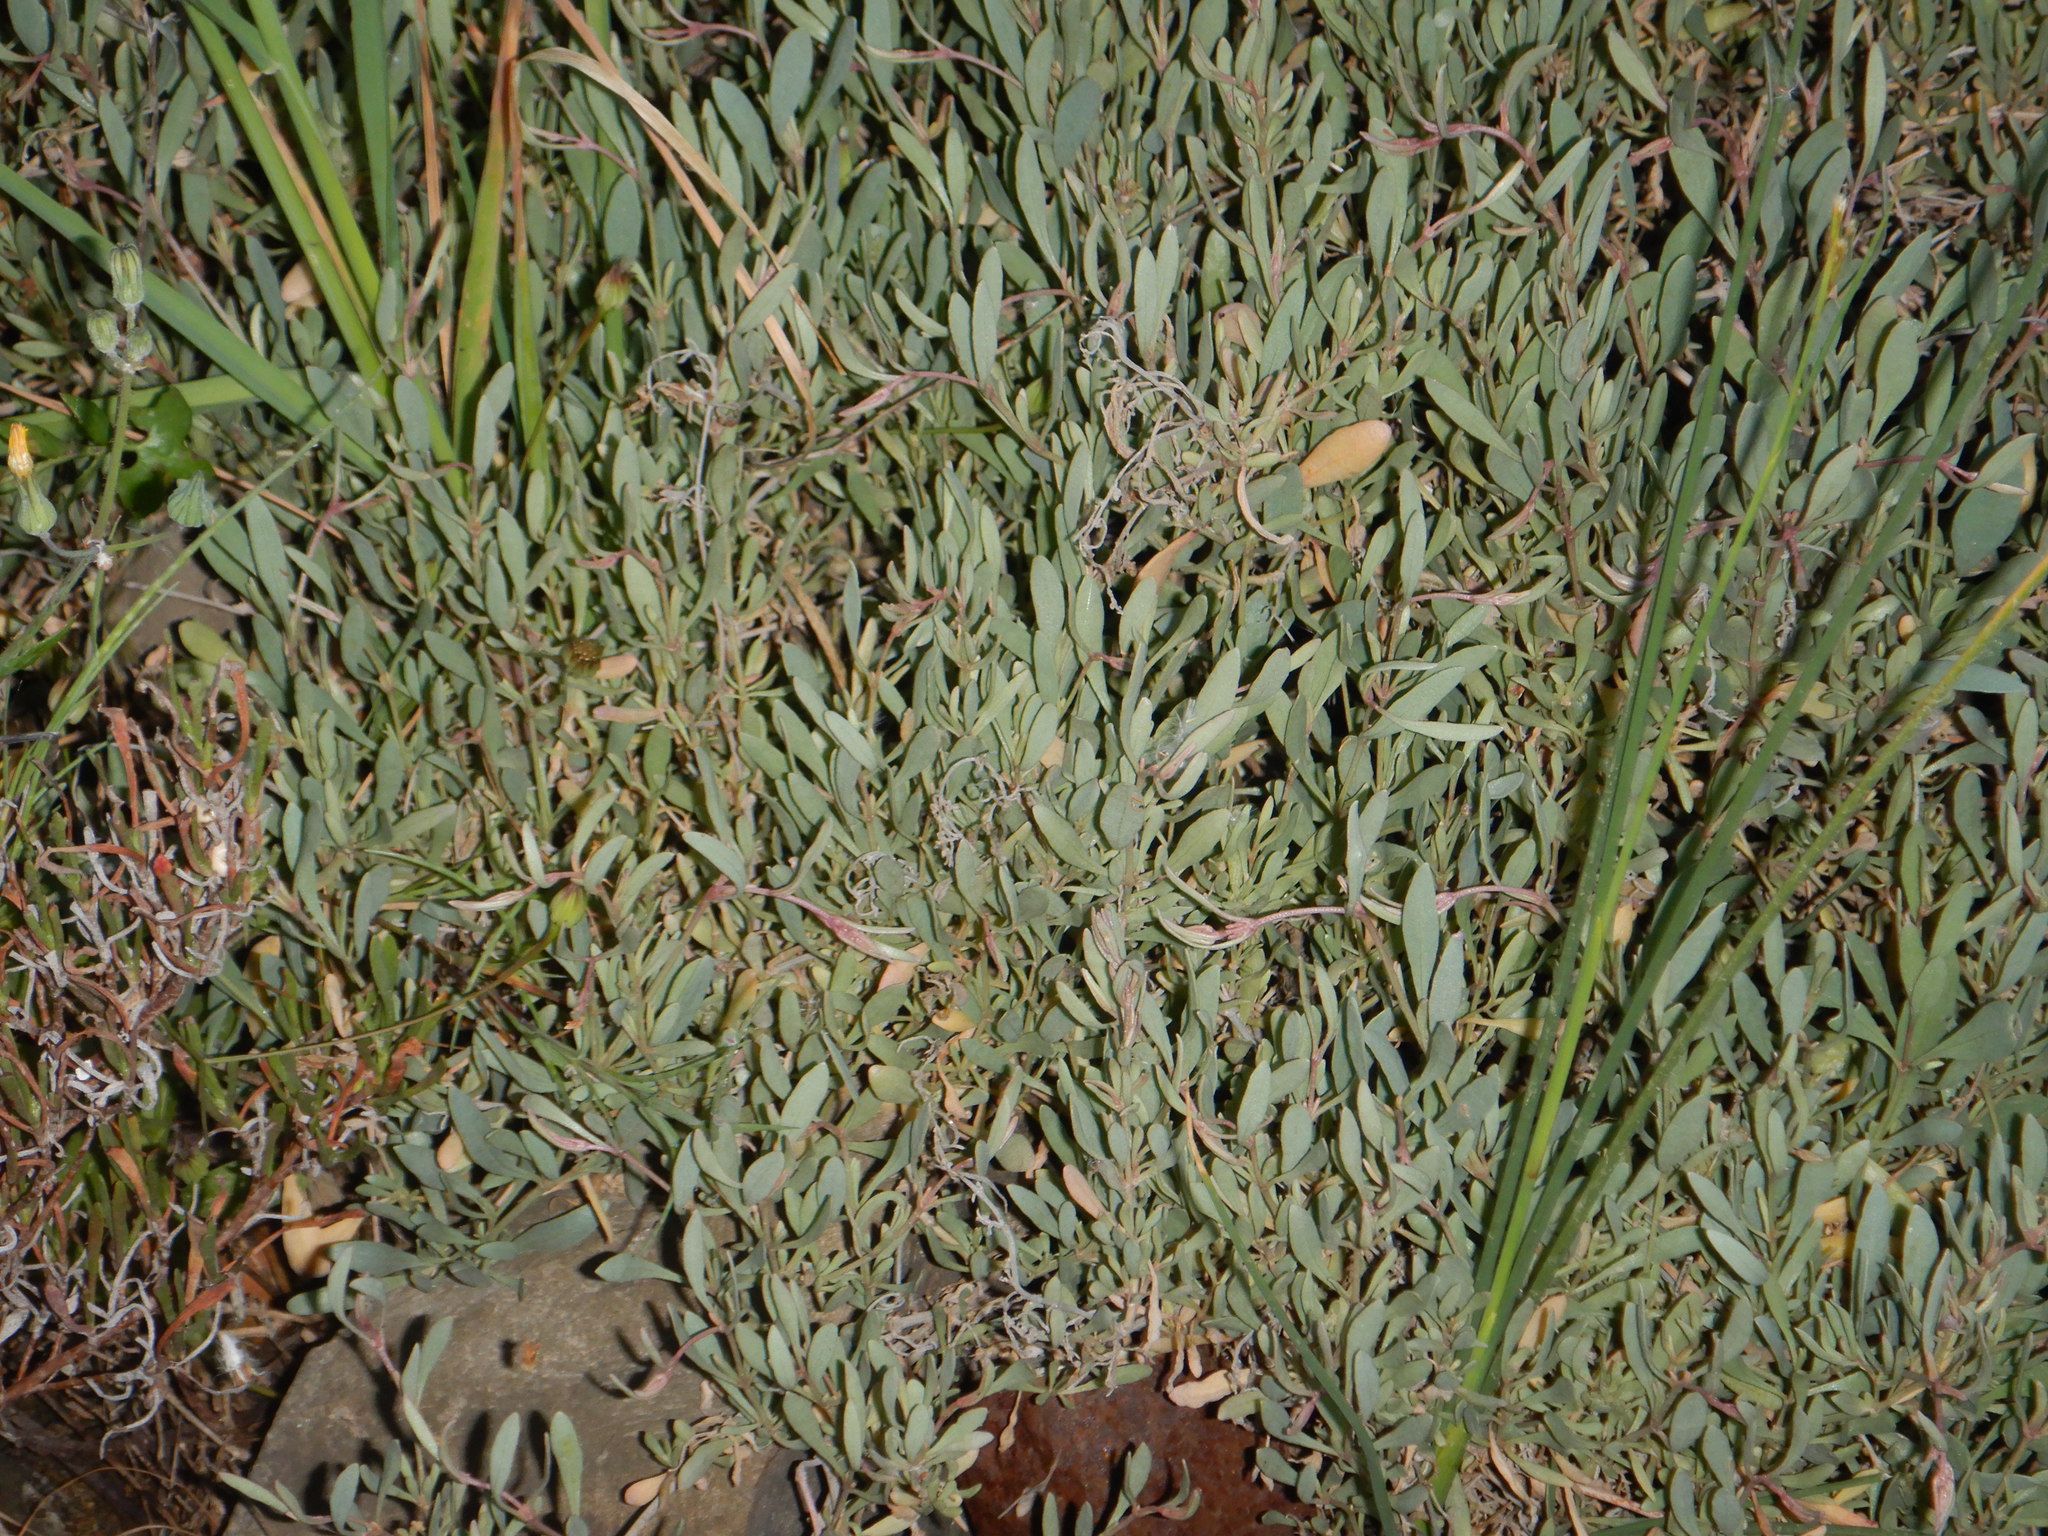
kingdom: Plantae
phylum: Tracheophyta
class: Magnoliopsida
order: Caryophyllales
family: Amaranthaceae
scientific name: Amaranthaceae
